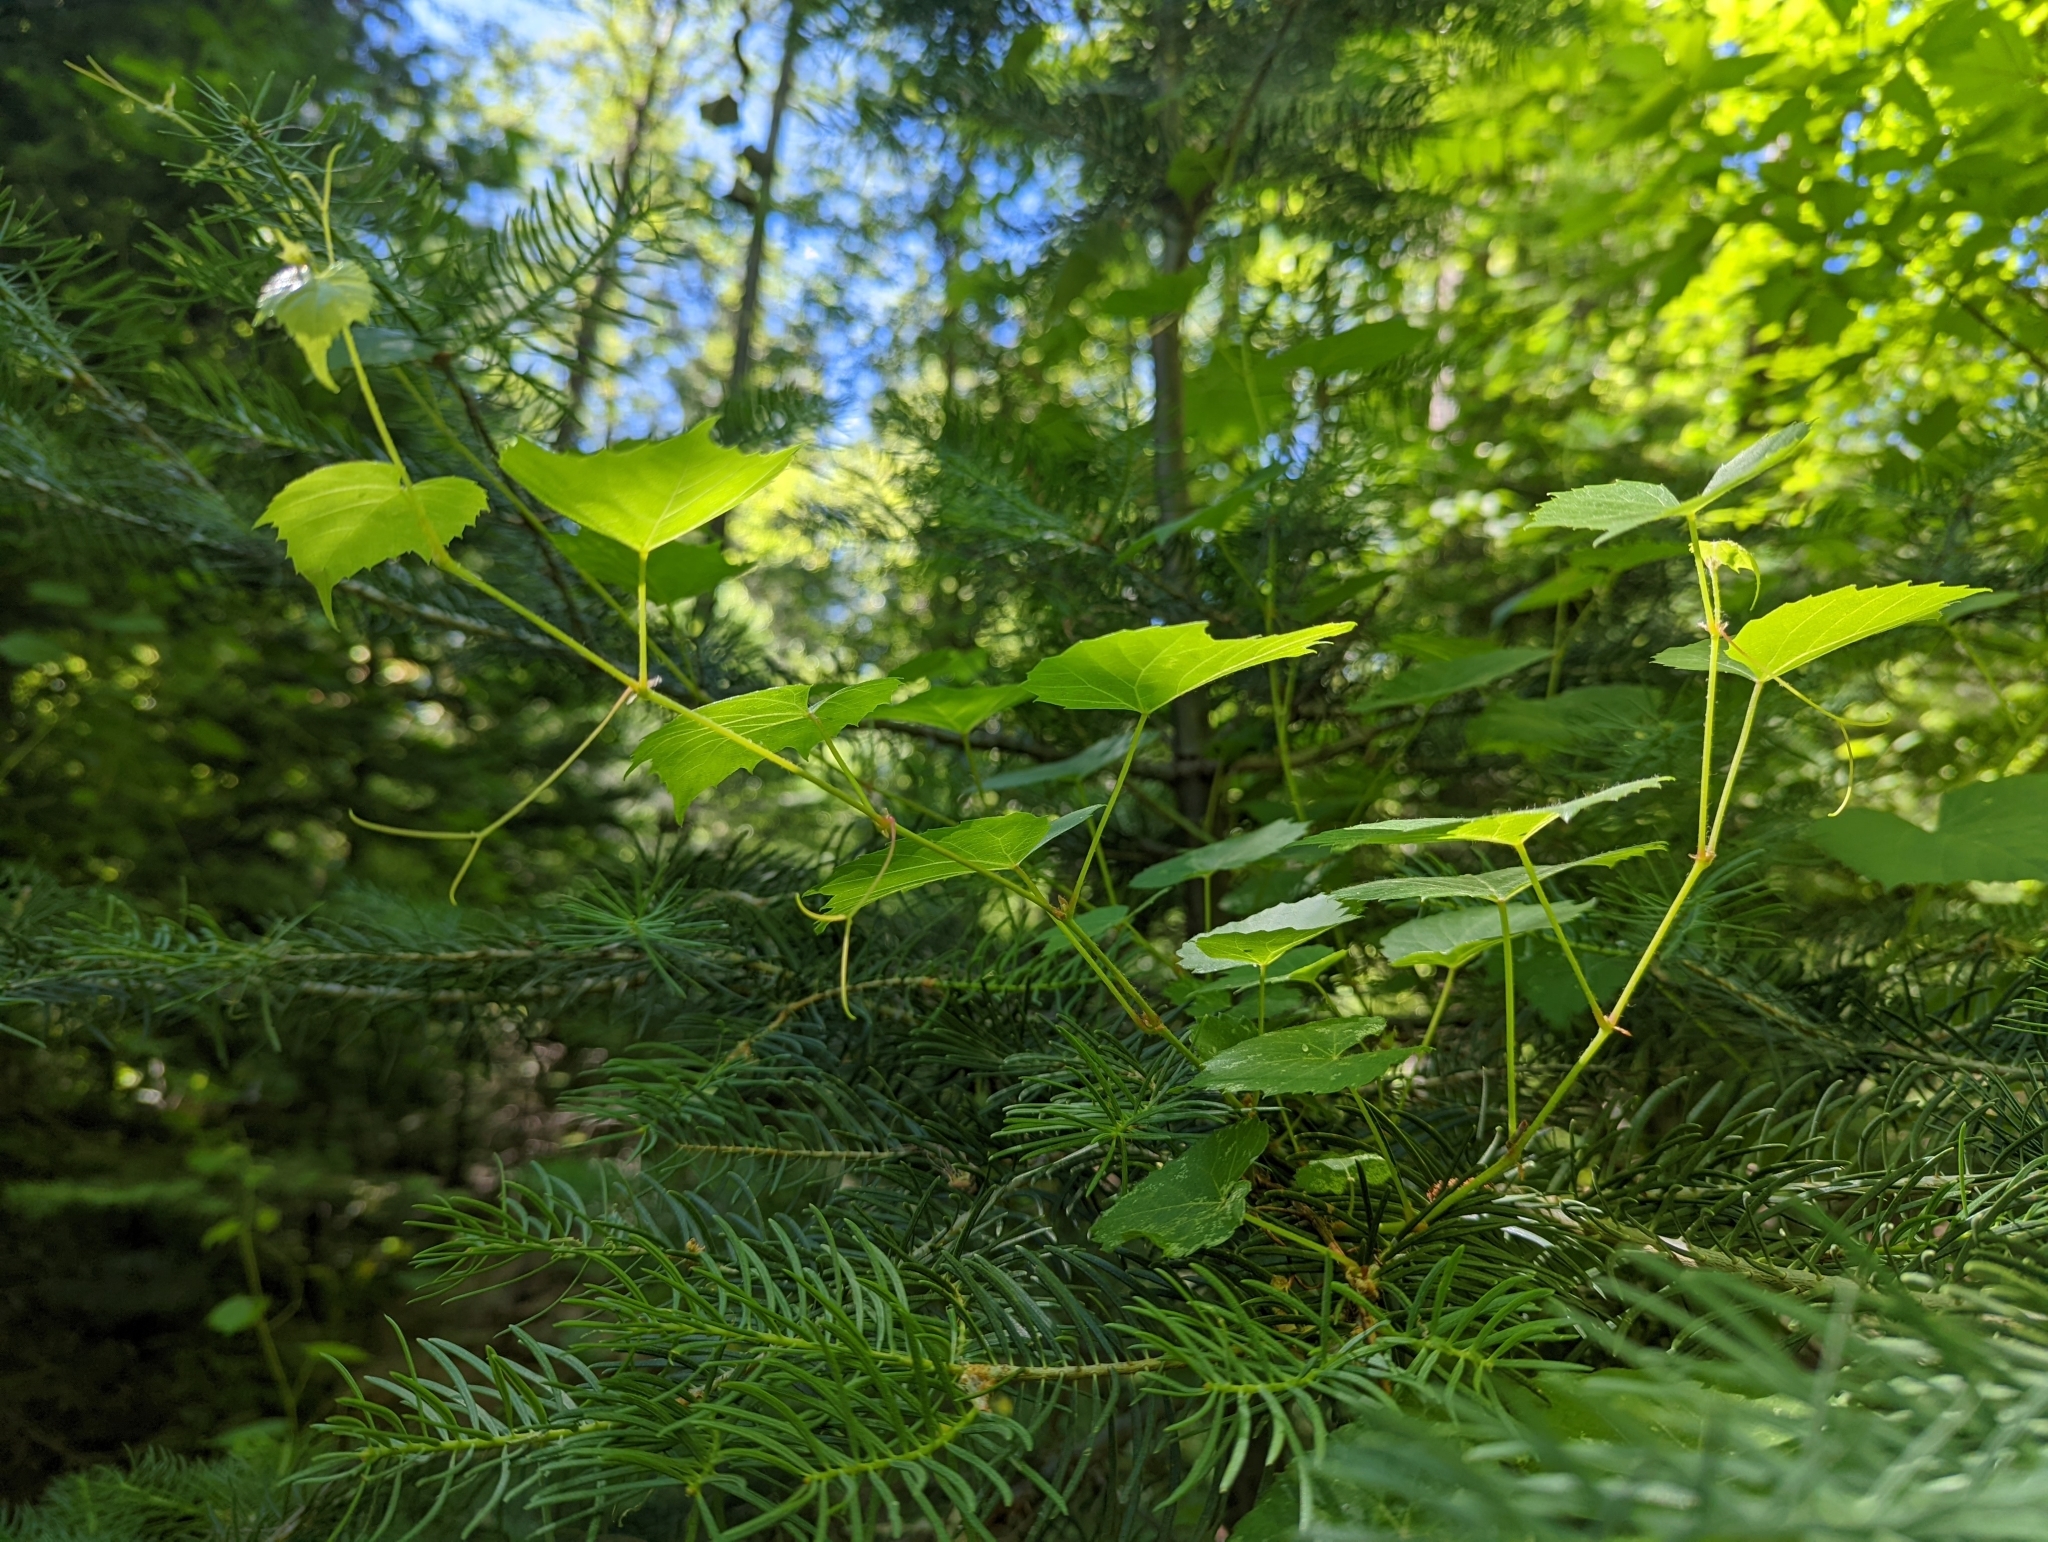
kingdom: Plantae
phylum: Tracheophyta
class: Magnoliopsida
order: Vitales
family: Vitaceae
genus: Vitis
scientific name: Vitis arizonica
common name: Canyon grape
